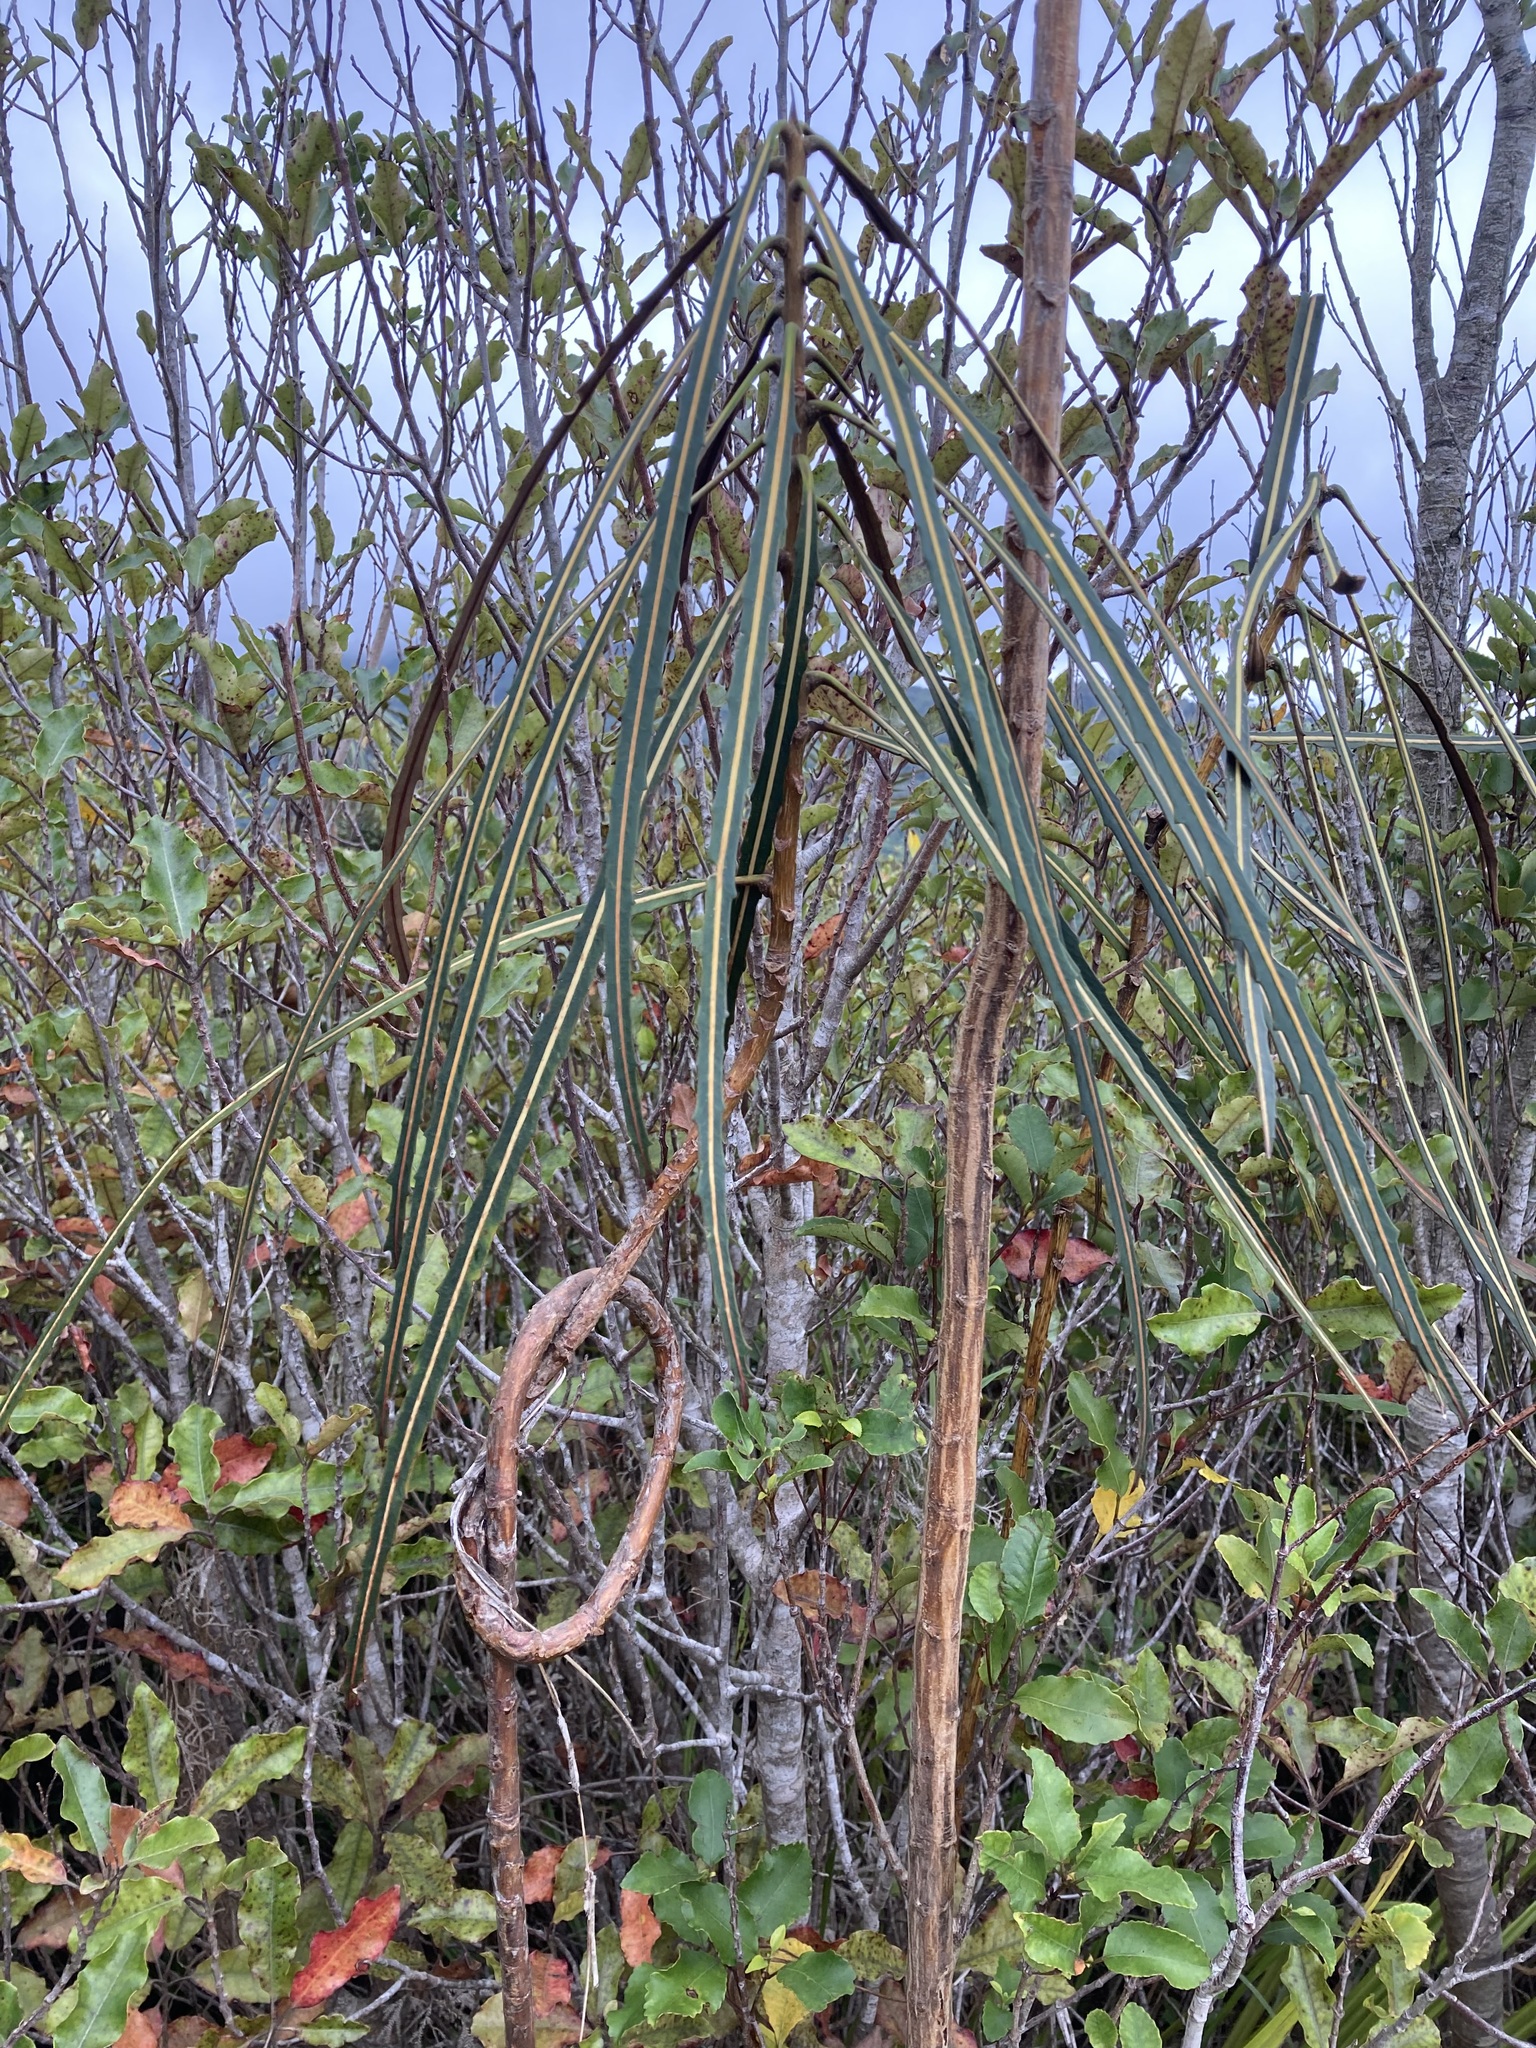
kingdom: Plantae
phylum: Tracheophyta
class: Magnoliopsida
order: Apiales
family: Araliaceae
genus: Pseudopanax
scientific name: Pseudopanax crassifolius
